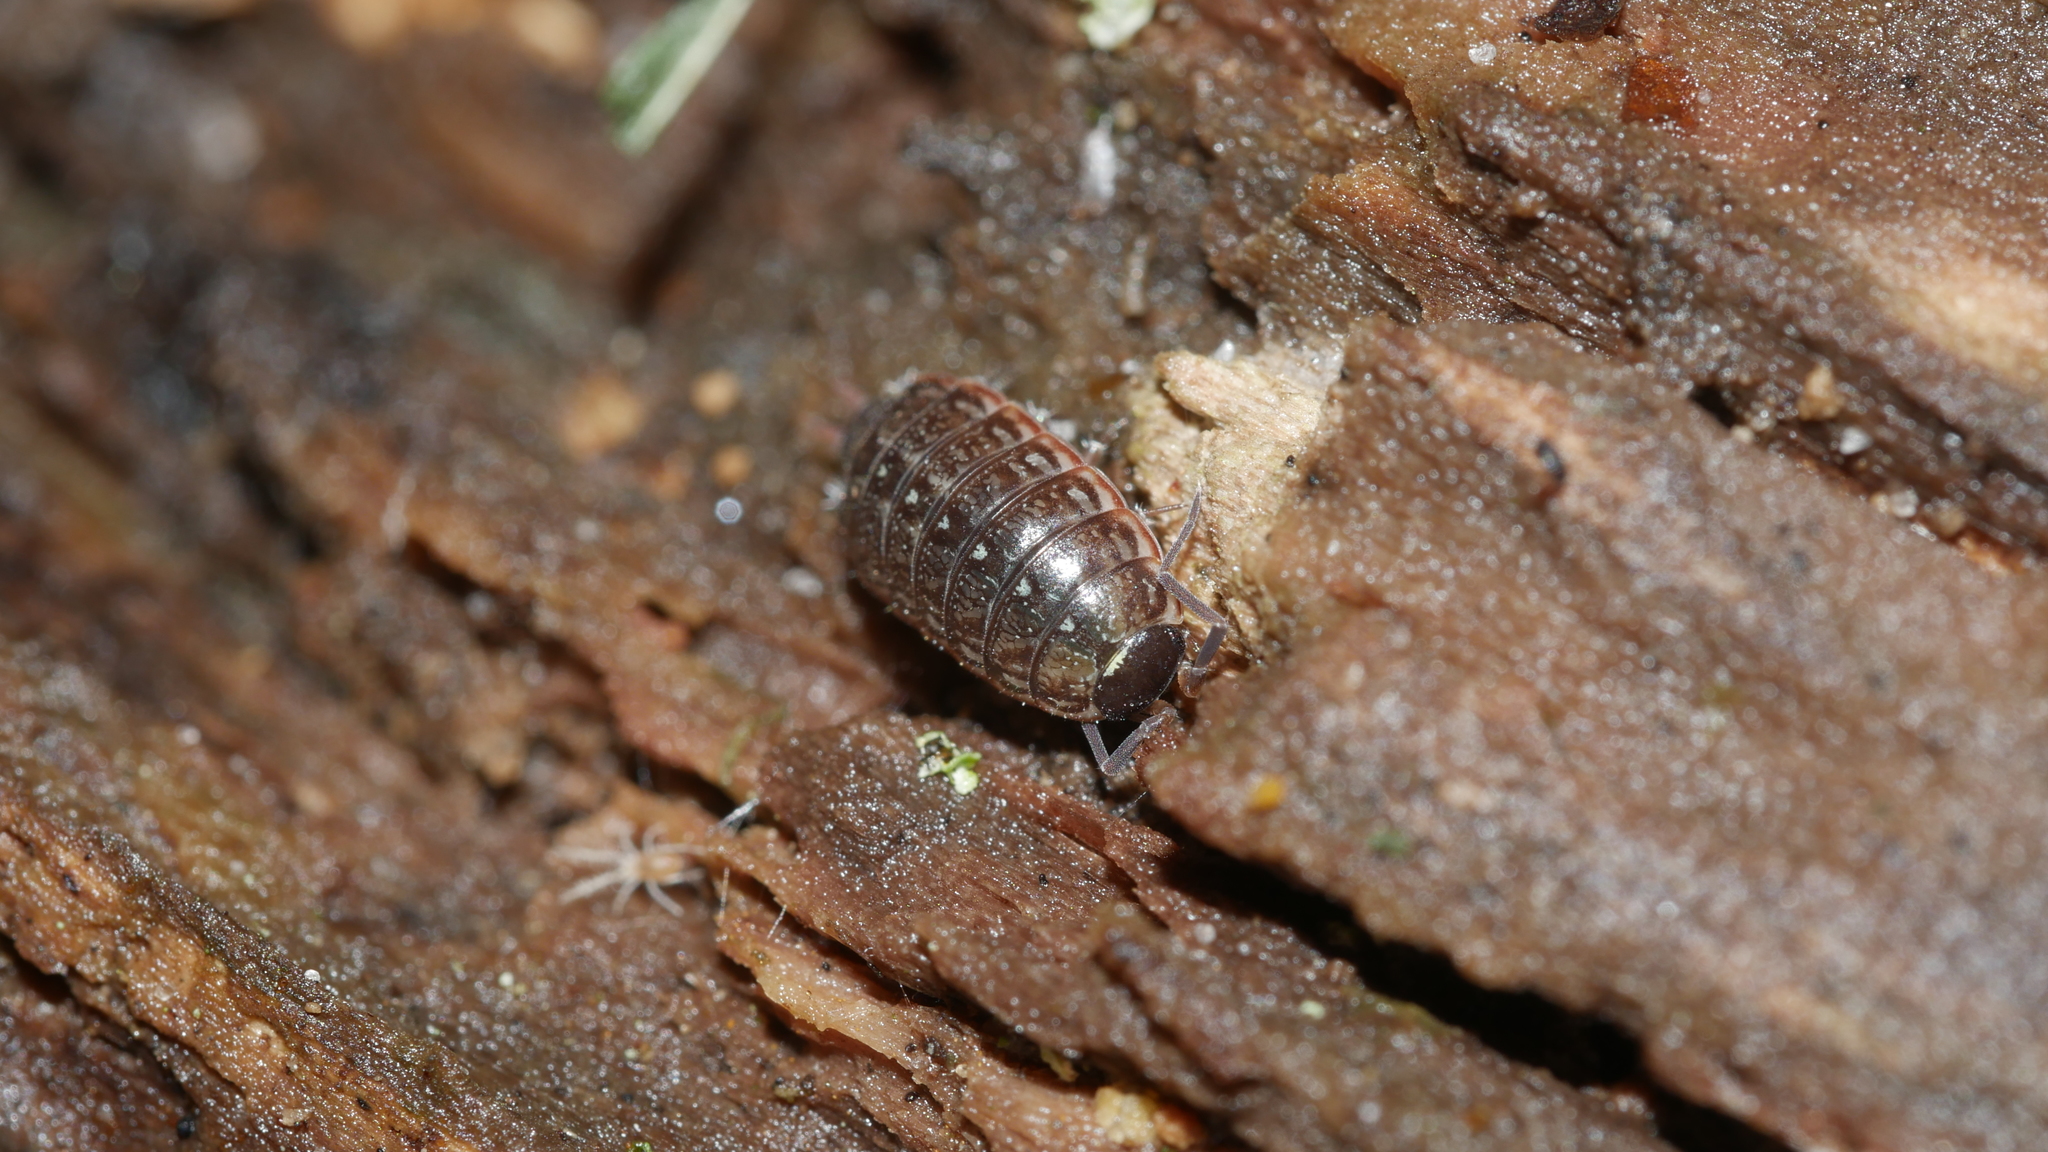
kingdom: Animalia
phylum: Arthropoda
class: Malacostraca
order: Isopoda
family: Philosciidae
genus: Philoscia
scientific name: Philoscia muscorum
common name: Common striped woodlouse
